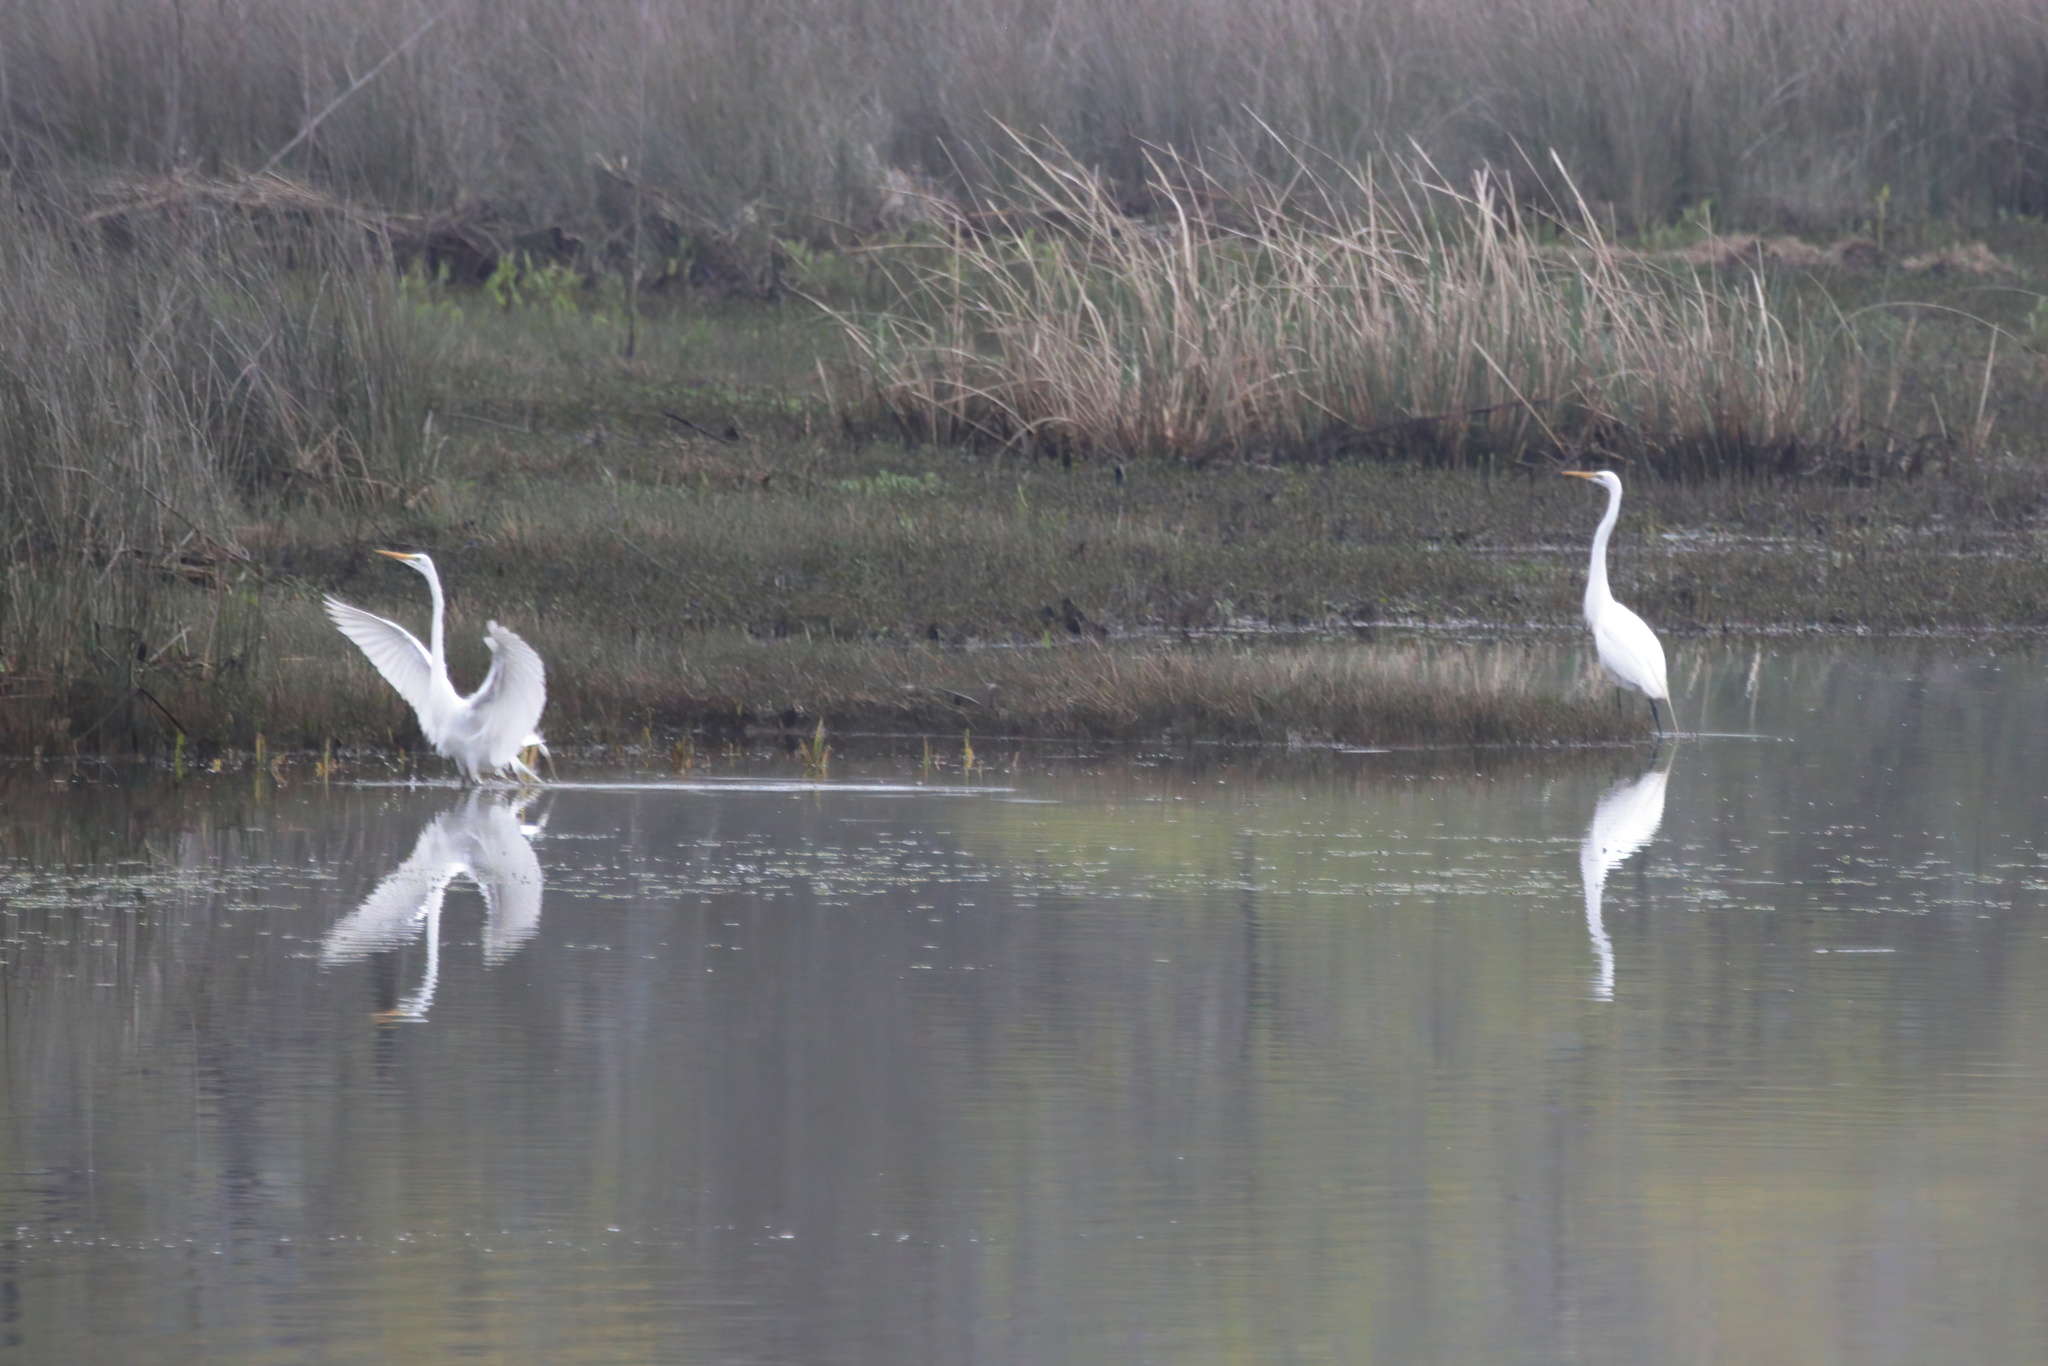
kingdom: Animalia
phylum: Chordata
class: Aves
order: Pelecaniformes
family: Ardeidae
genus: Ardea
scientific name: Ardea alba
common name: Great egret
